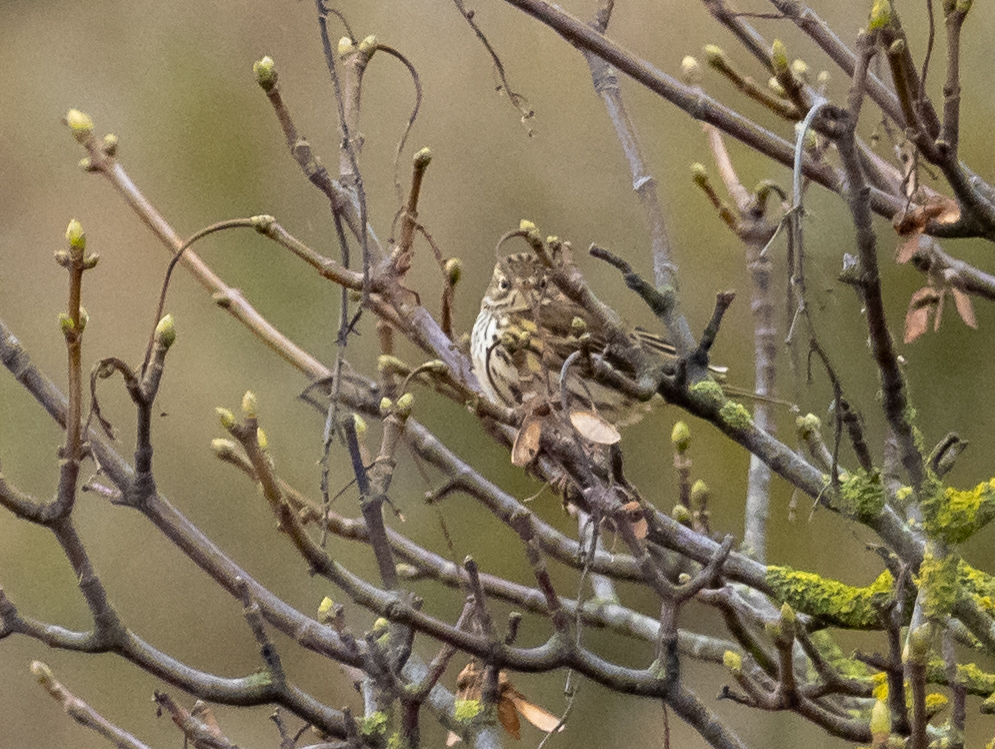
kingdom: Animalia
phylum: Chordata
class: Aves
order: Passeriformes
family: Motacillidae
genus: Anthus
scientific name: Anthus pratensis
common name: Meadow pipit
